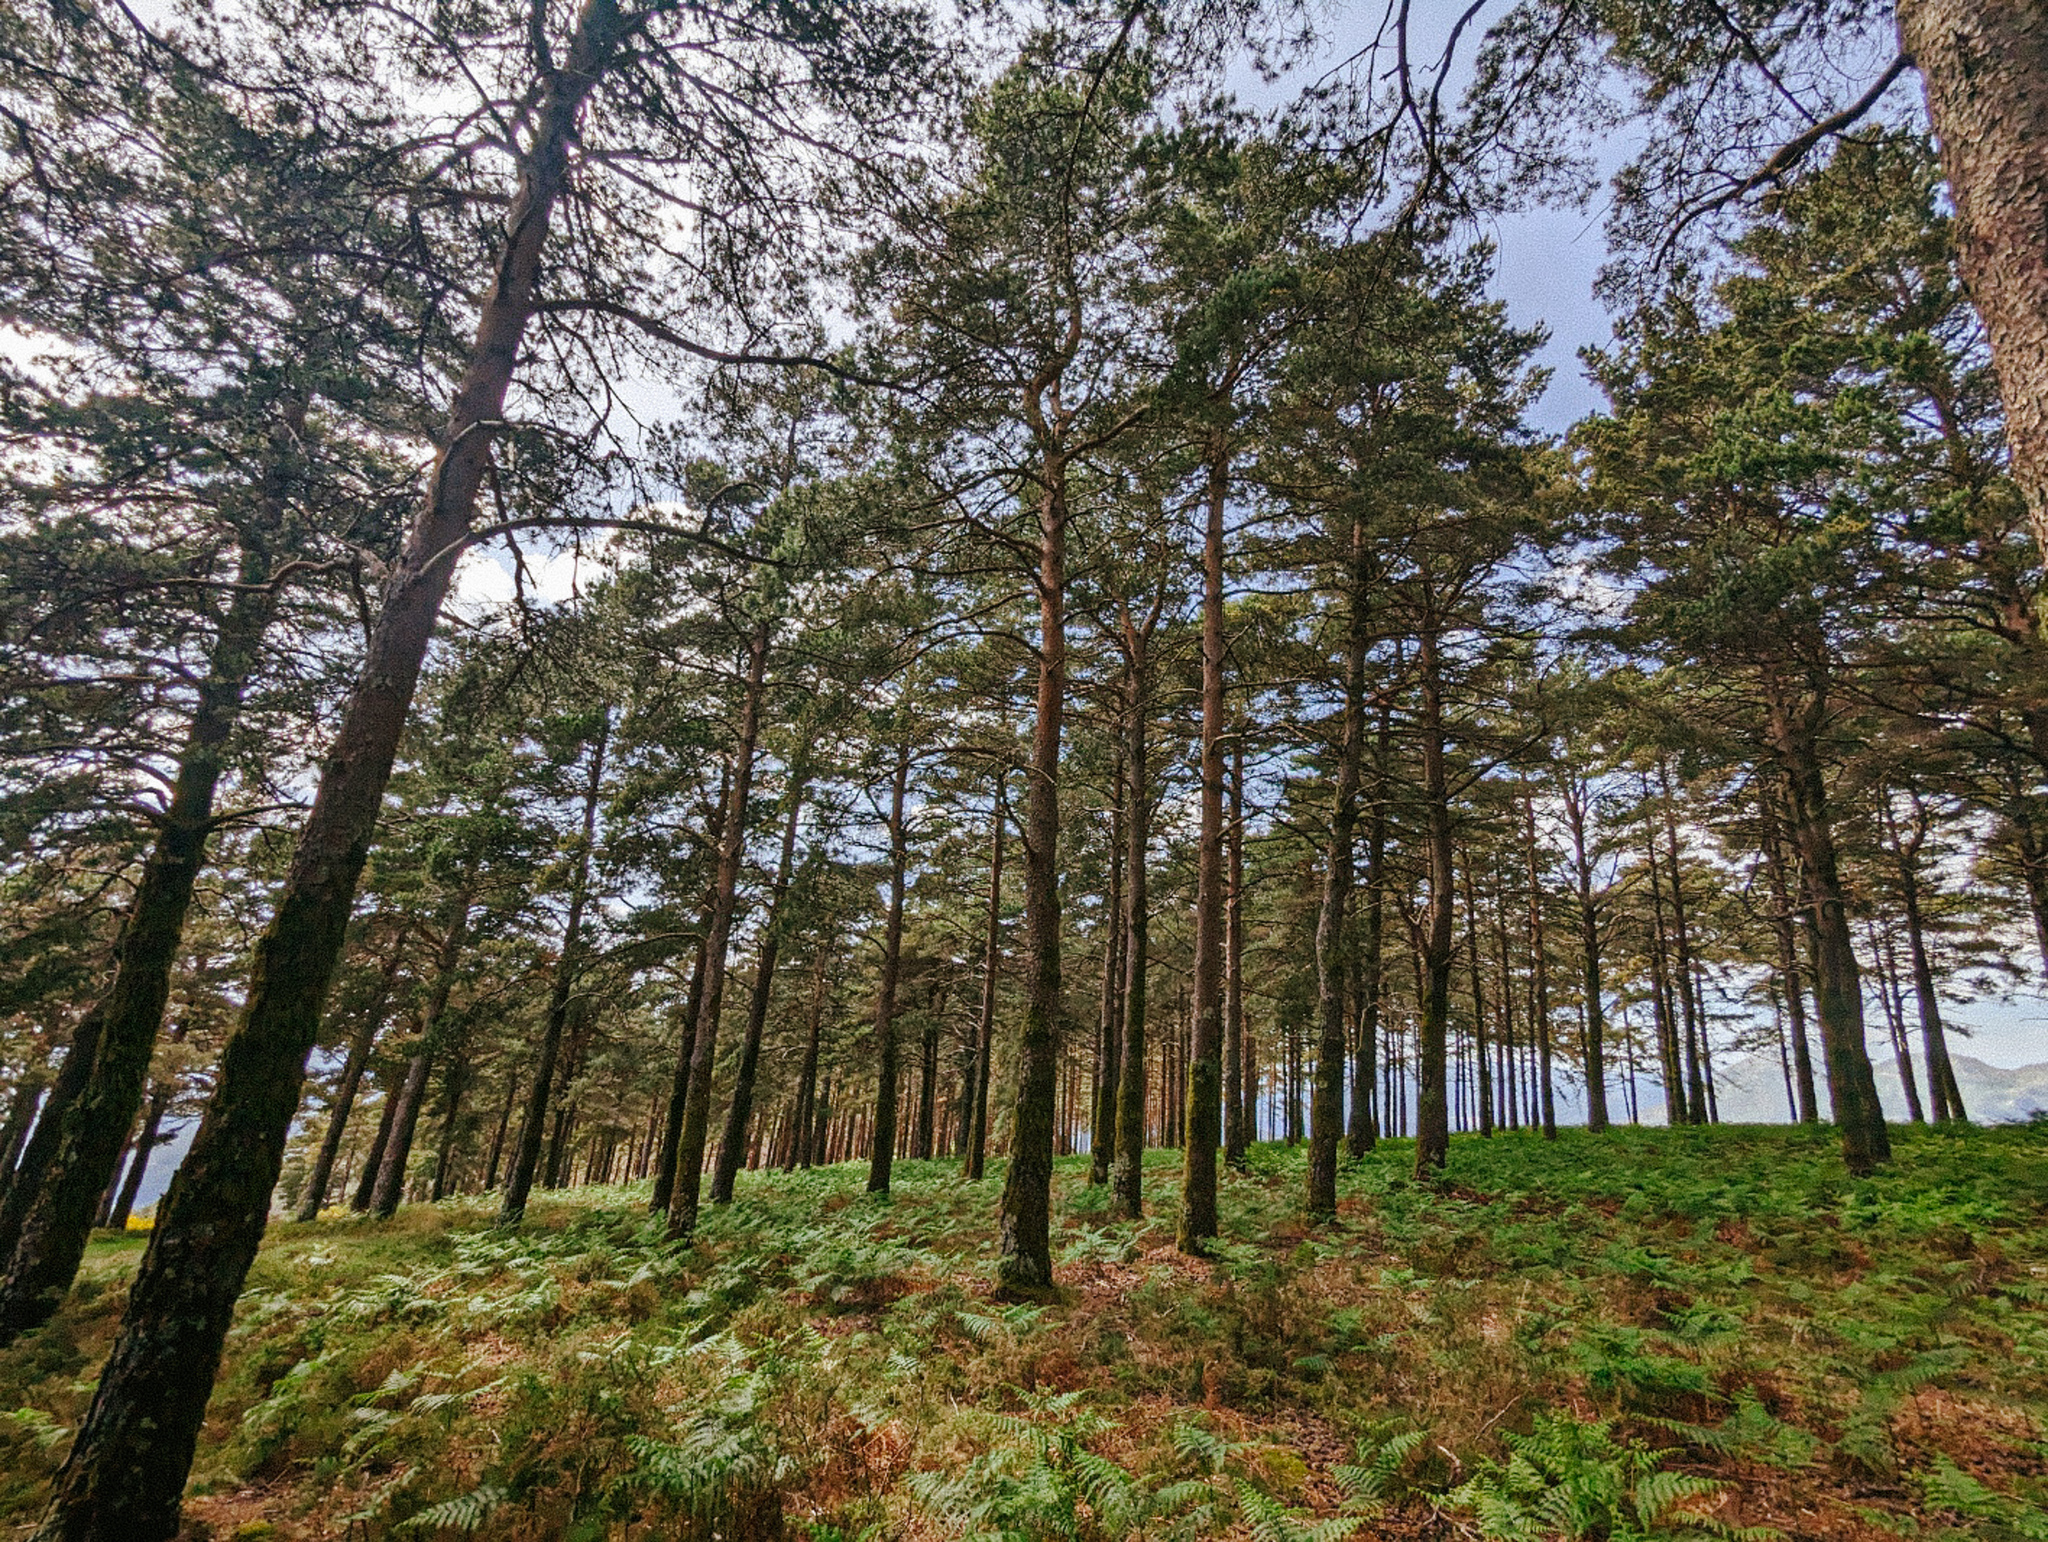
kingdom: Plantae
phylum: Tracheophyta
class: Pinopsida
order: Pinales
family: Pinaceae
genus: Pinus
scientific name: Pinus sylvestris
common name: Scots pine
